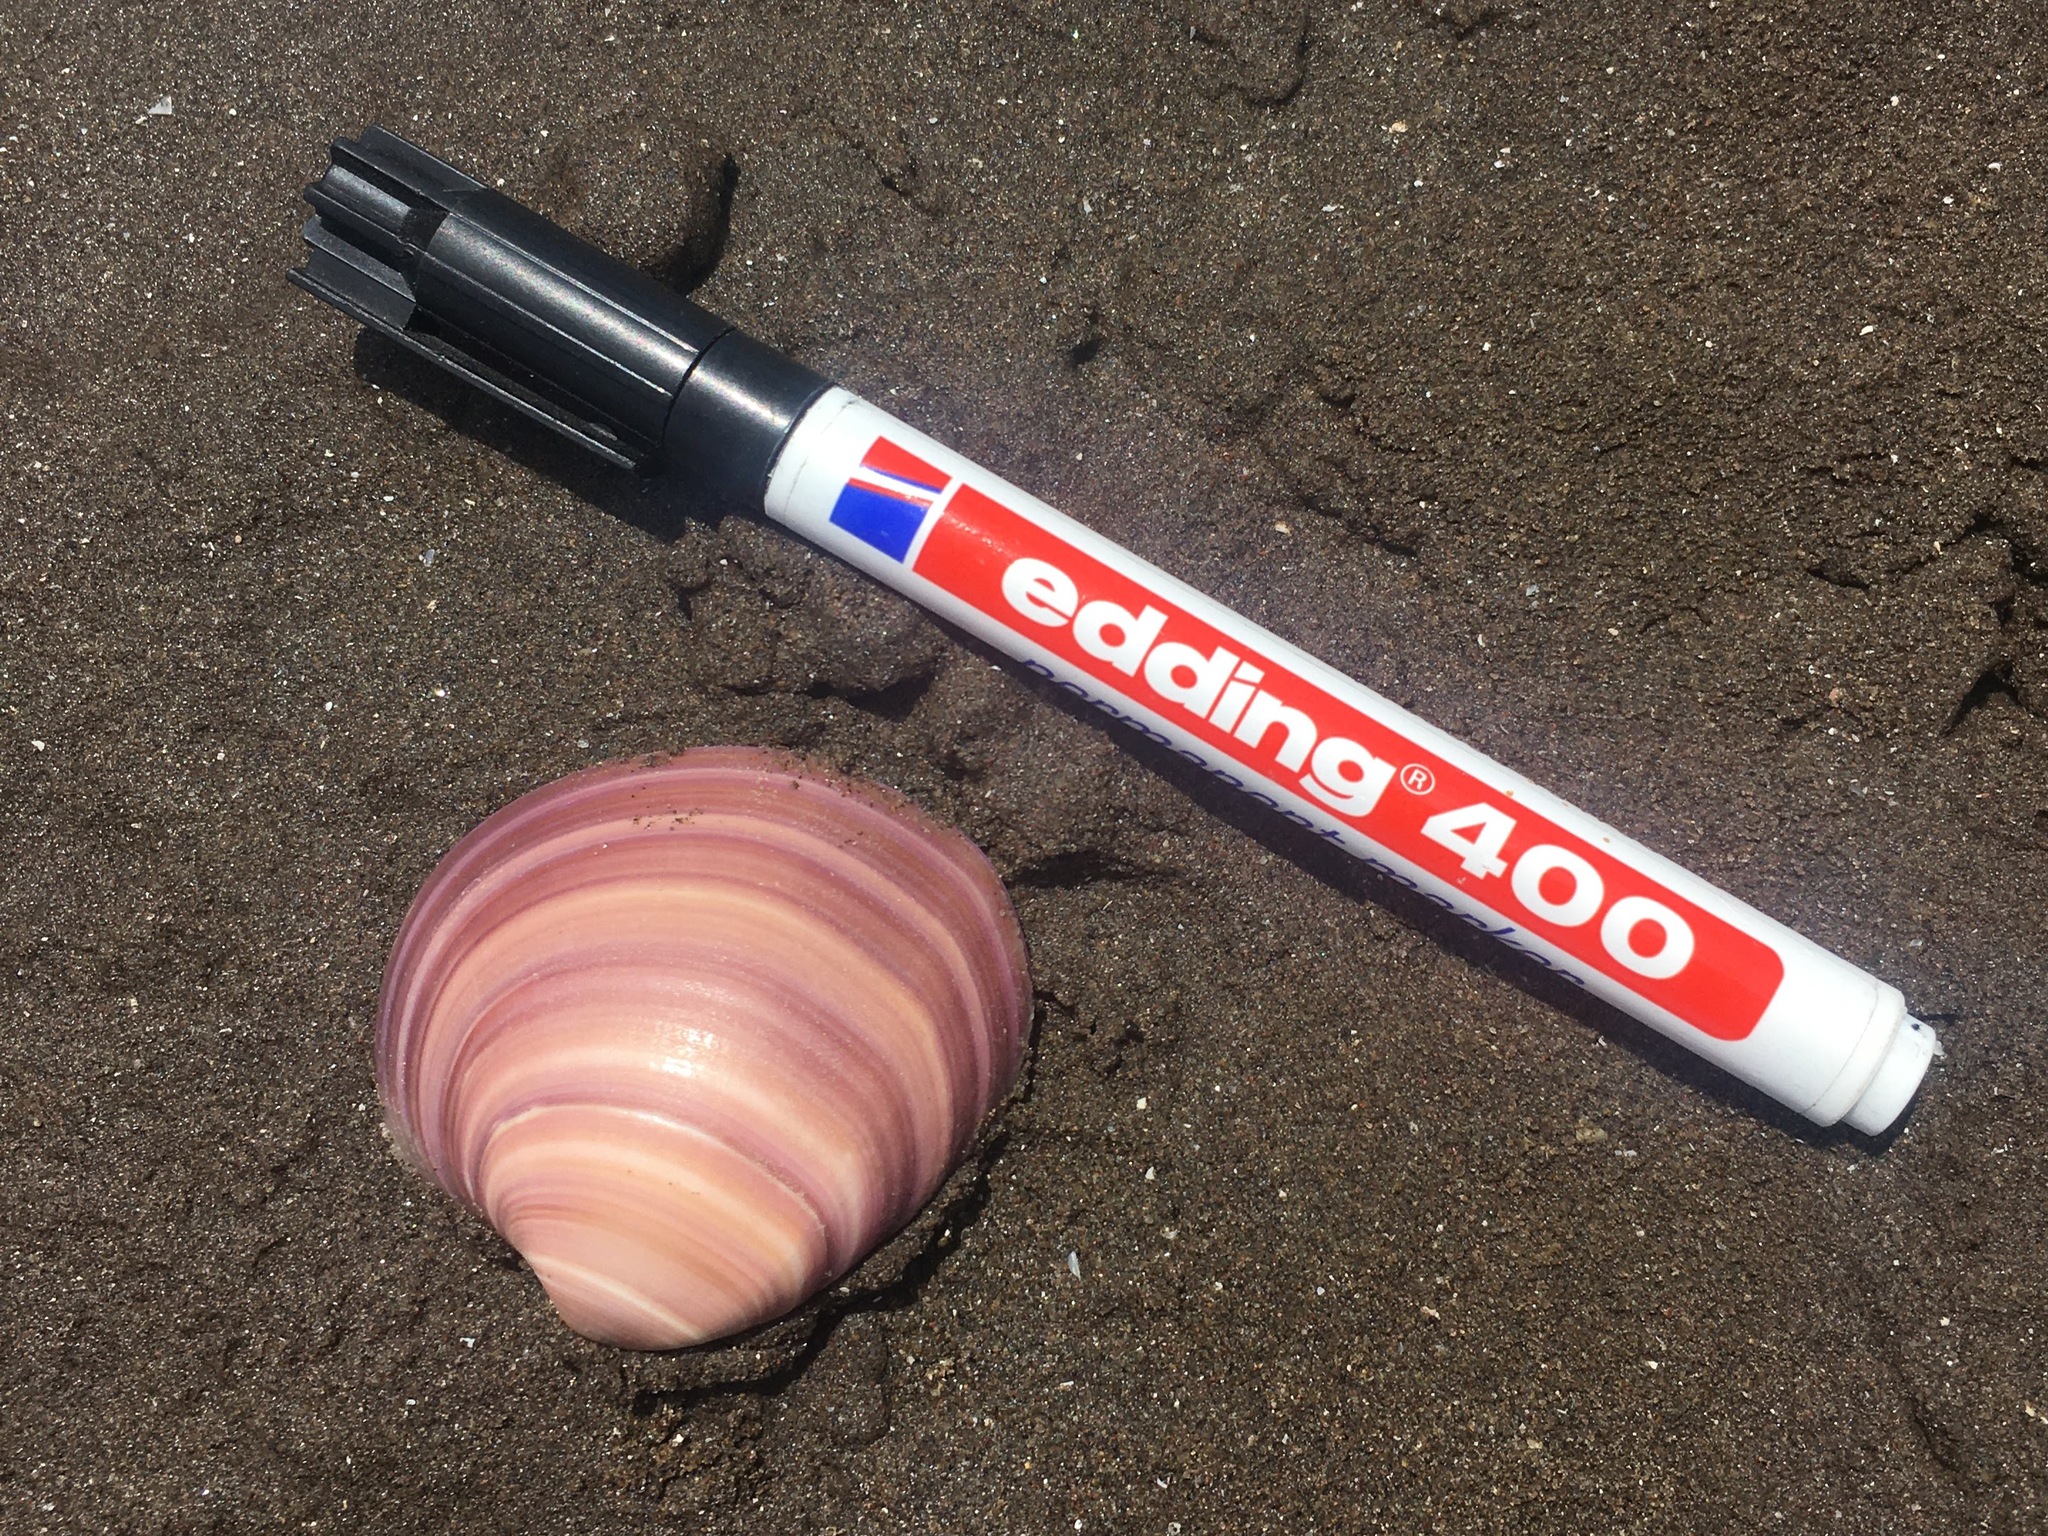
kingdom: Animalia
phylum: Mollusca
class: Bivalvia
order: Venerida
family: Veneridae
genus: Eucallista
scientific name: Eucallista purpurata
